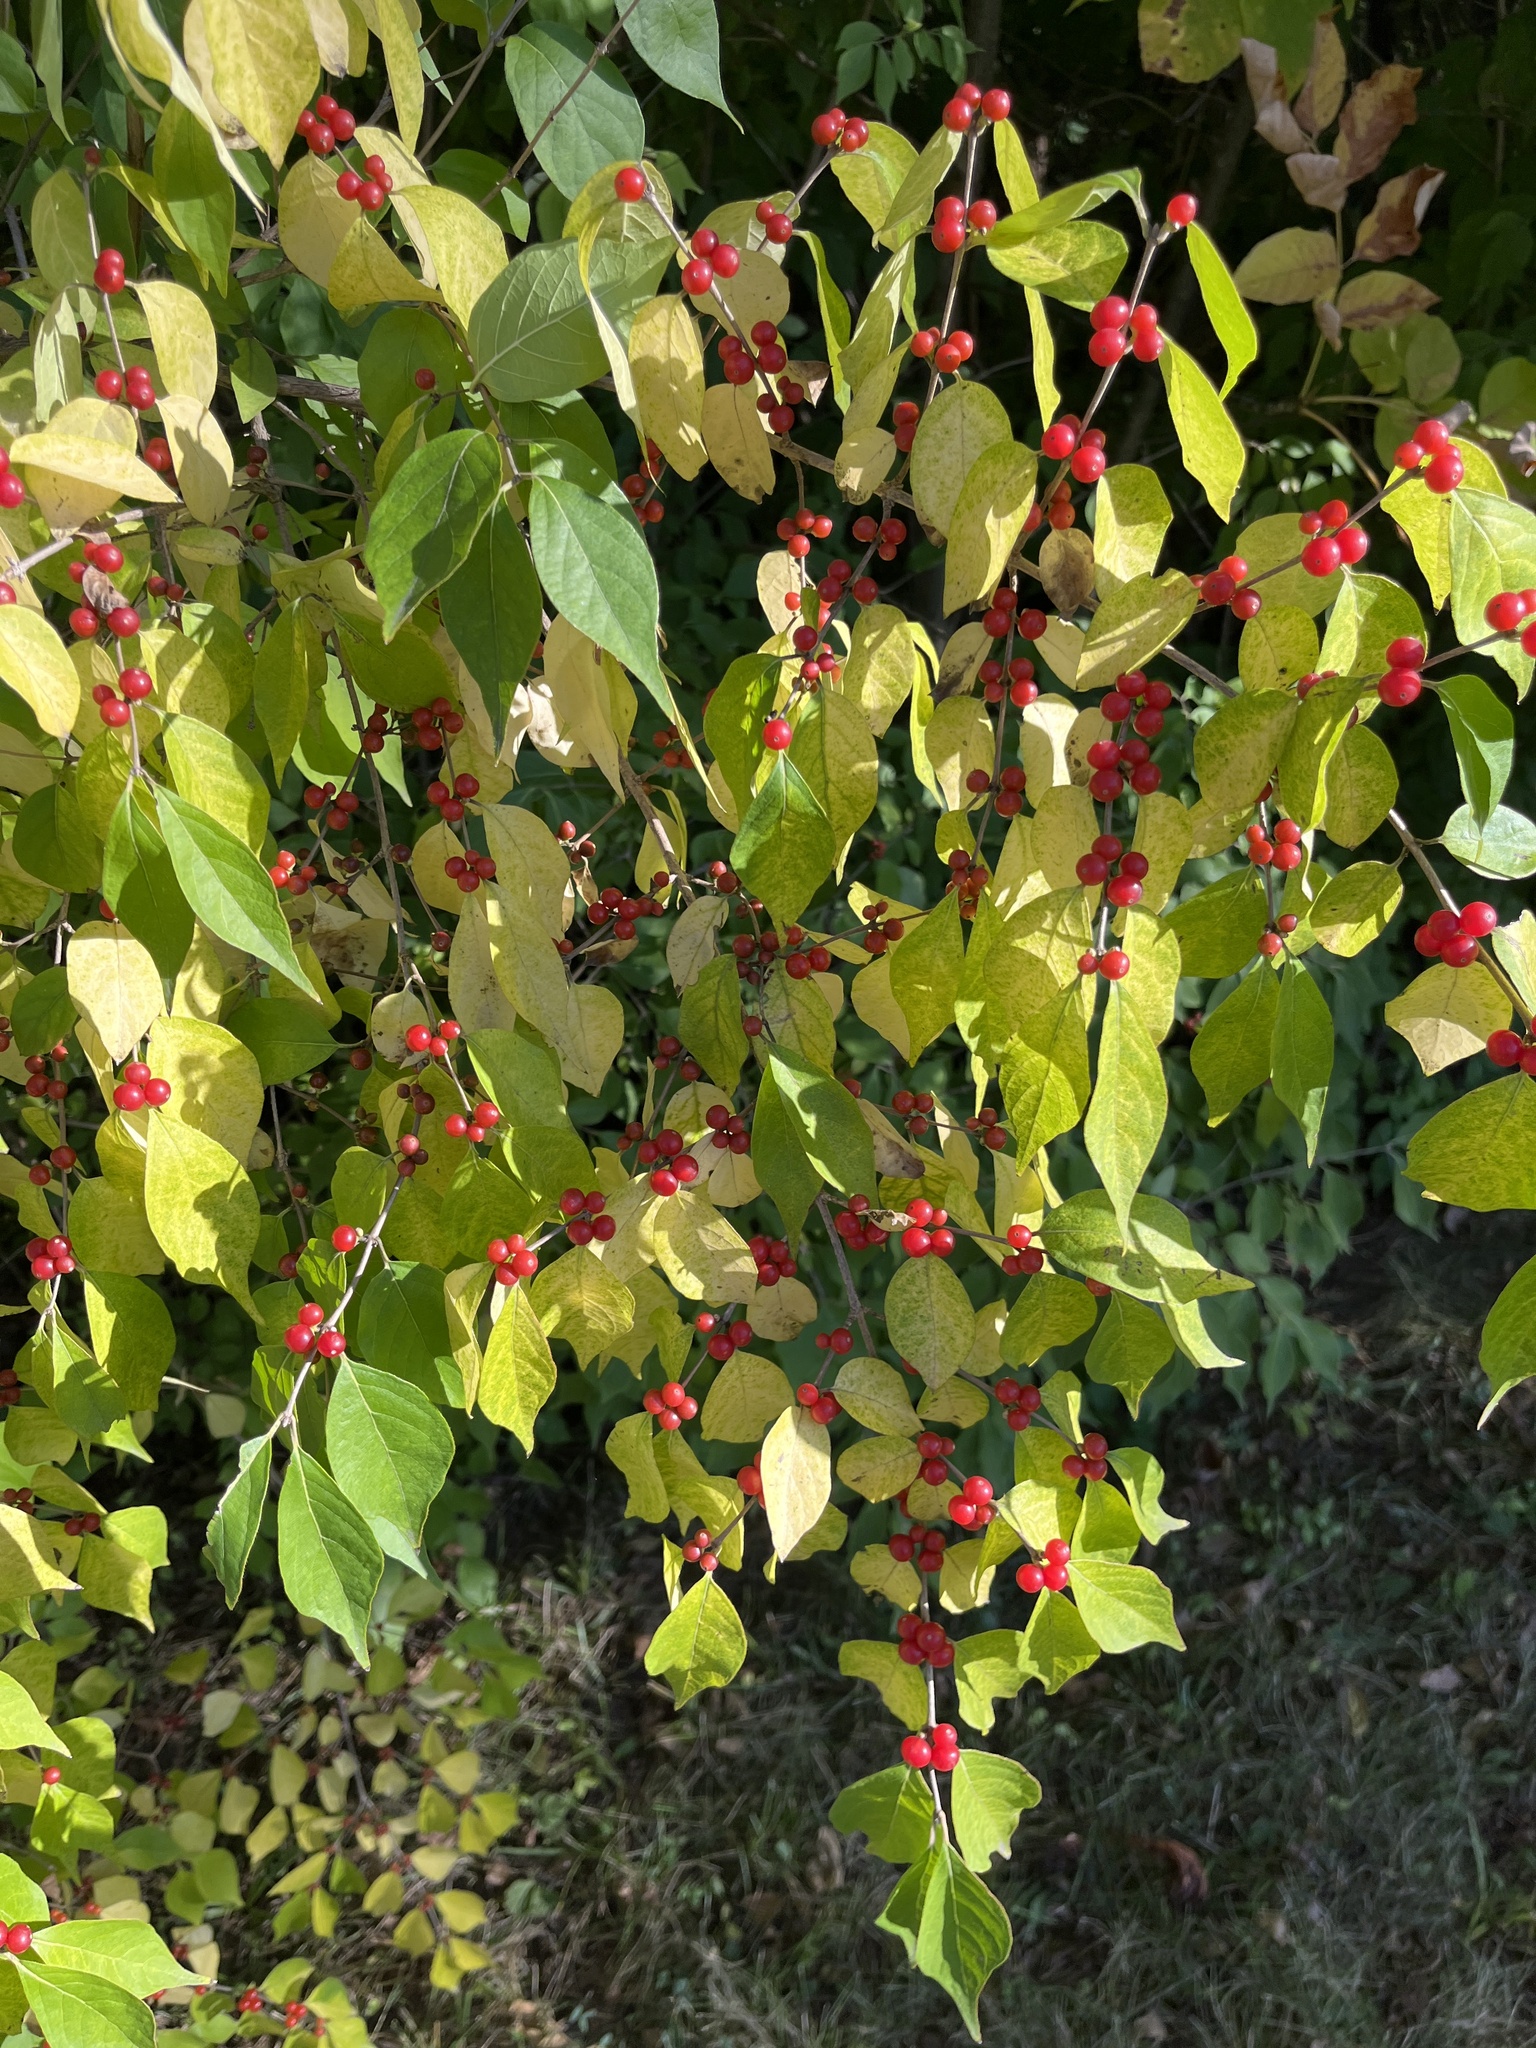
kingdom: Plantae
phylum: Tracheophyta
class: Magnoliopsida
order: Dipsacales
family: Caprifoliaceae
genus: Lonicera
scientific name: Lonicera maackii
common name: Amur honeysuckle
